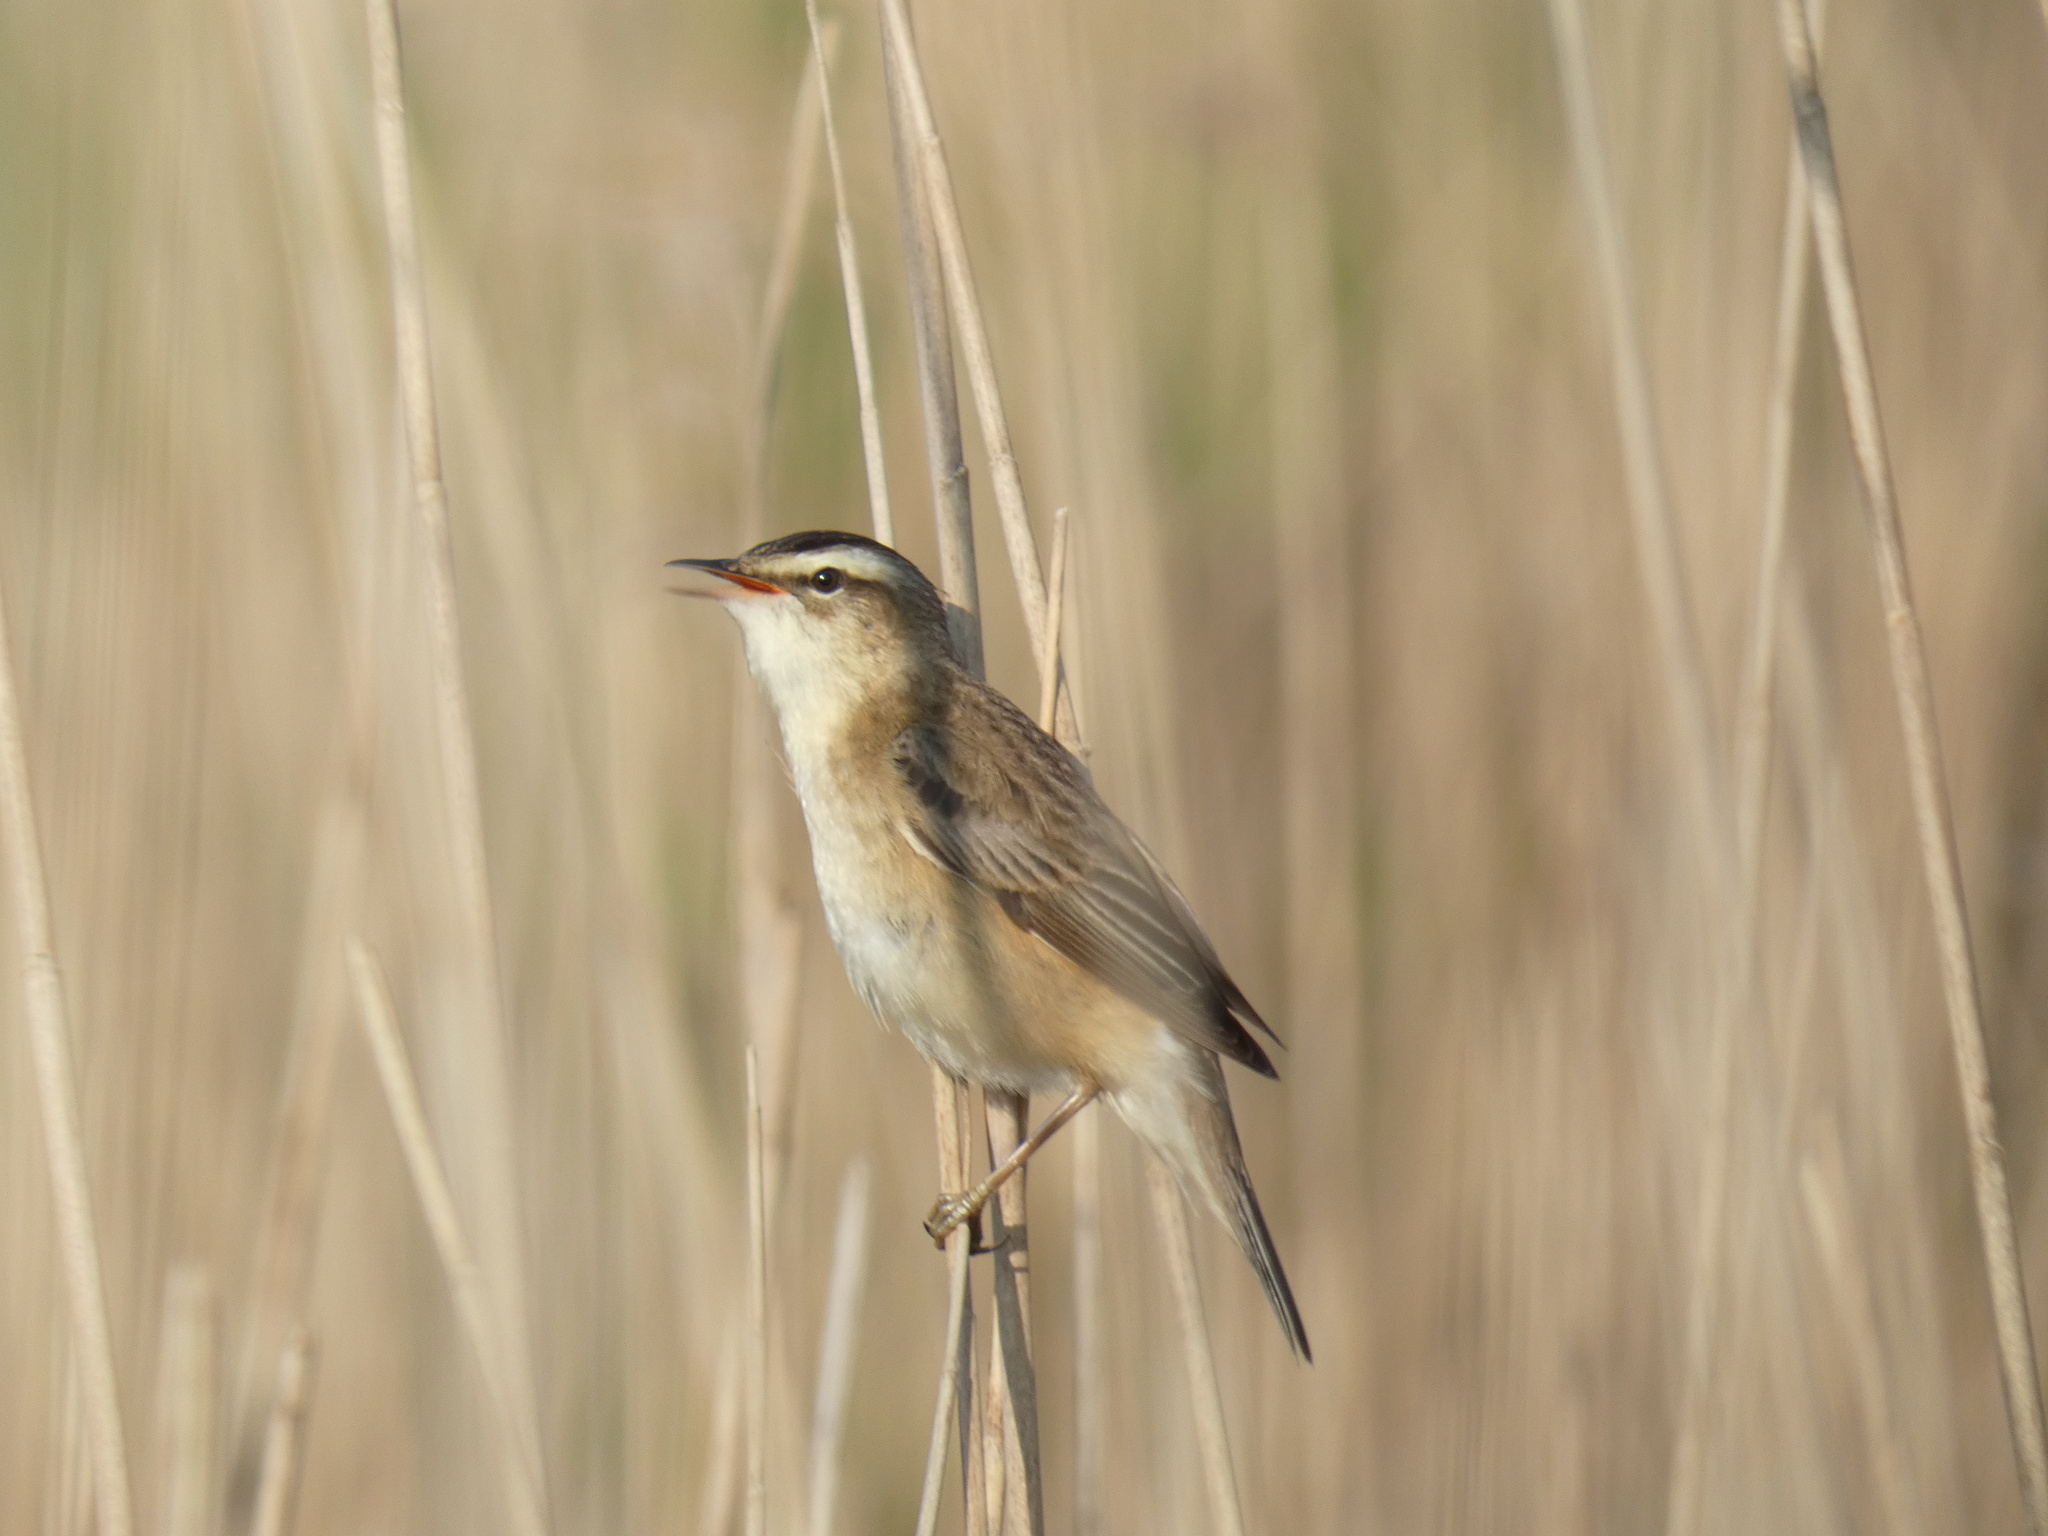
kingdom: Animalia
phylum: Chordata
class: Aves
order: Passeriformes
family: Acrocephalidae
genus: Acrocephalus
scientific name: Acrocephalus schoenobaenus
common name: Sedge warbler
